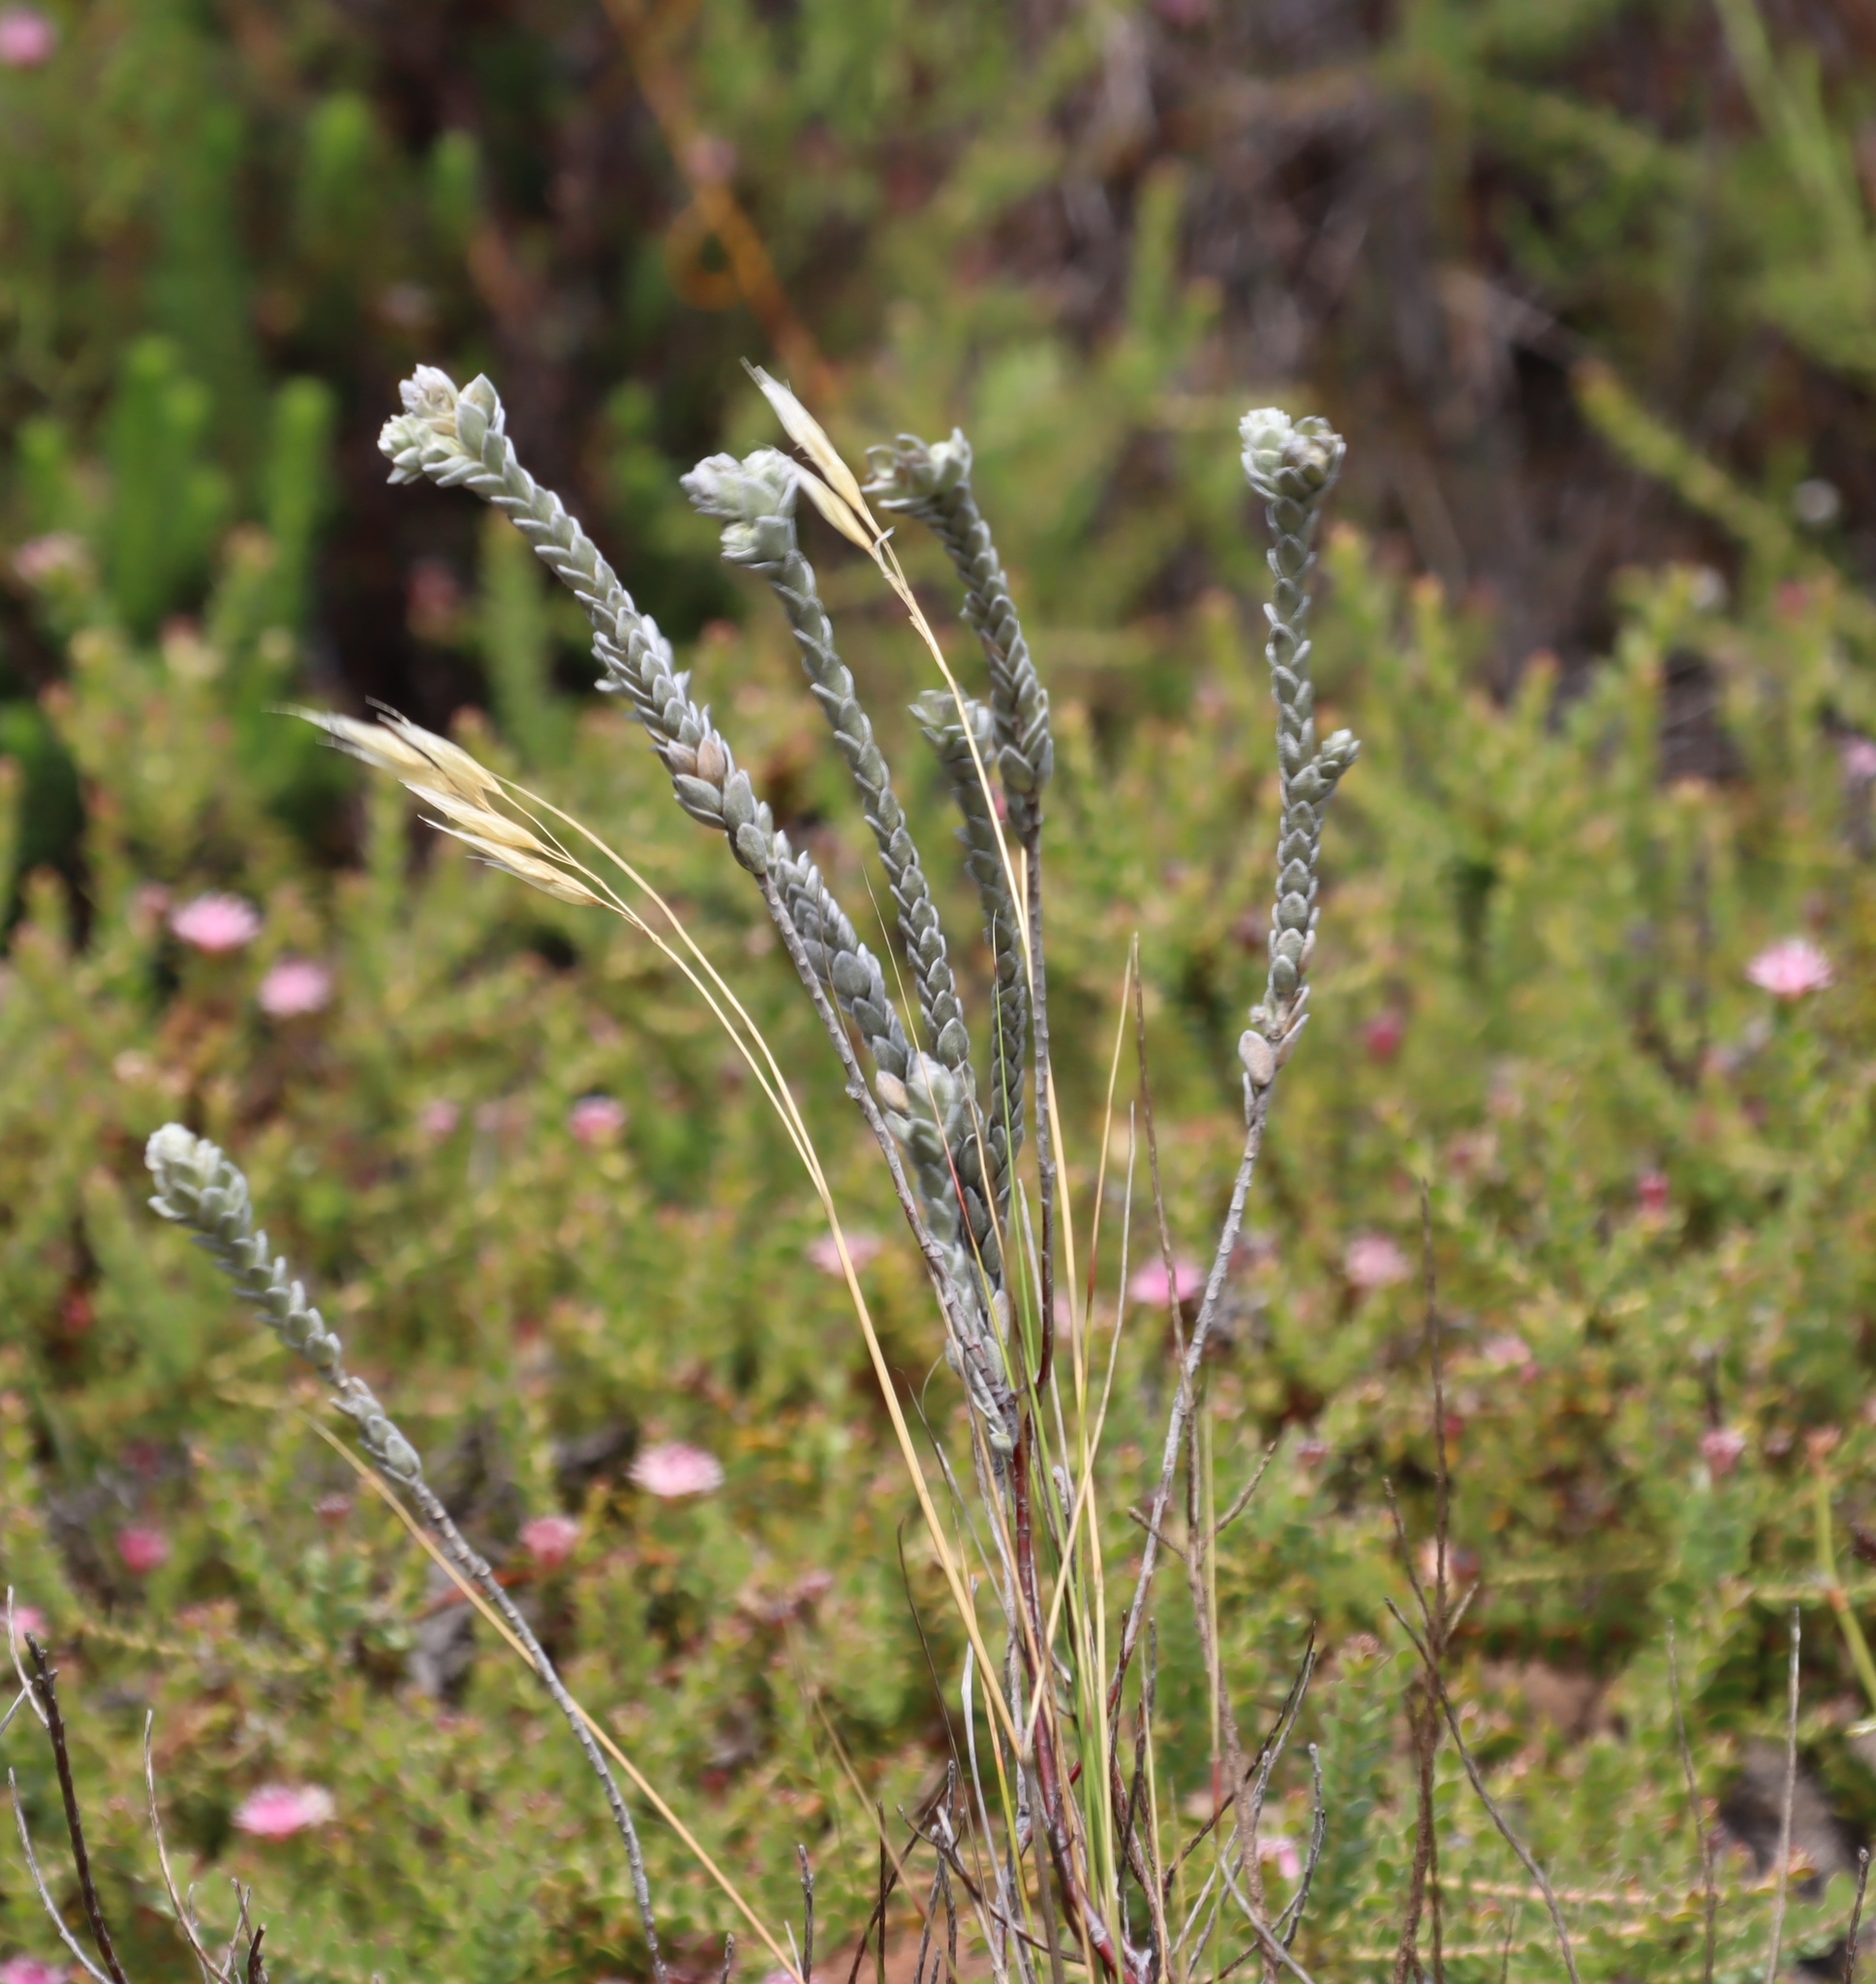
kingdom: Plantae
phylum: Tracheophyta
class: Magnoliopsida
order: Malvales
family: Thymelaeaceae
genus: Gnidia
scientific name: Gnidia imbricata
